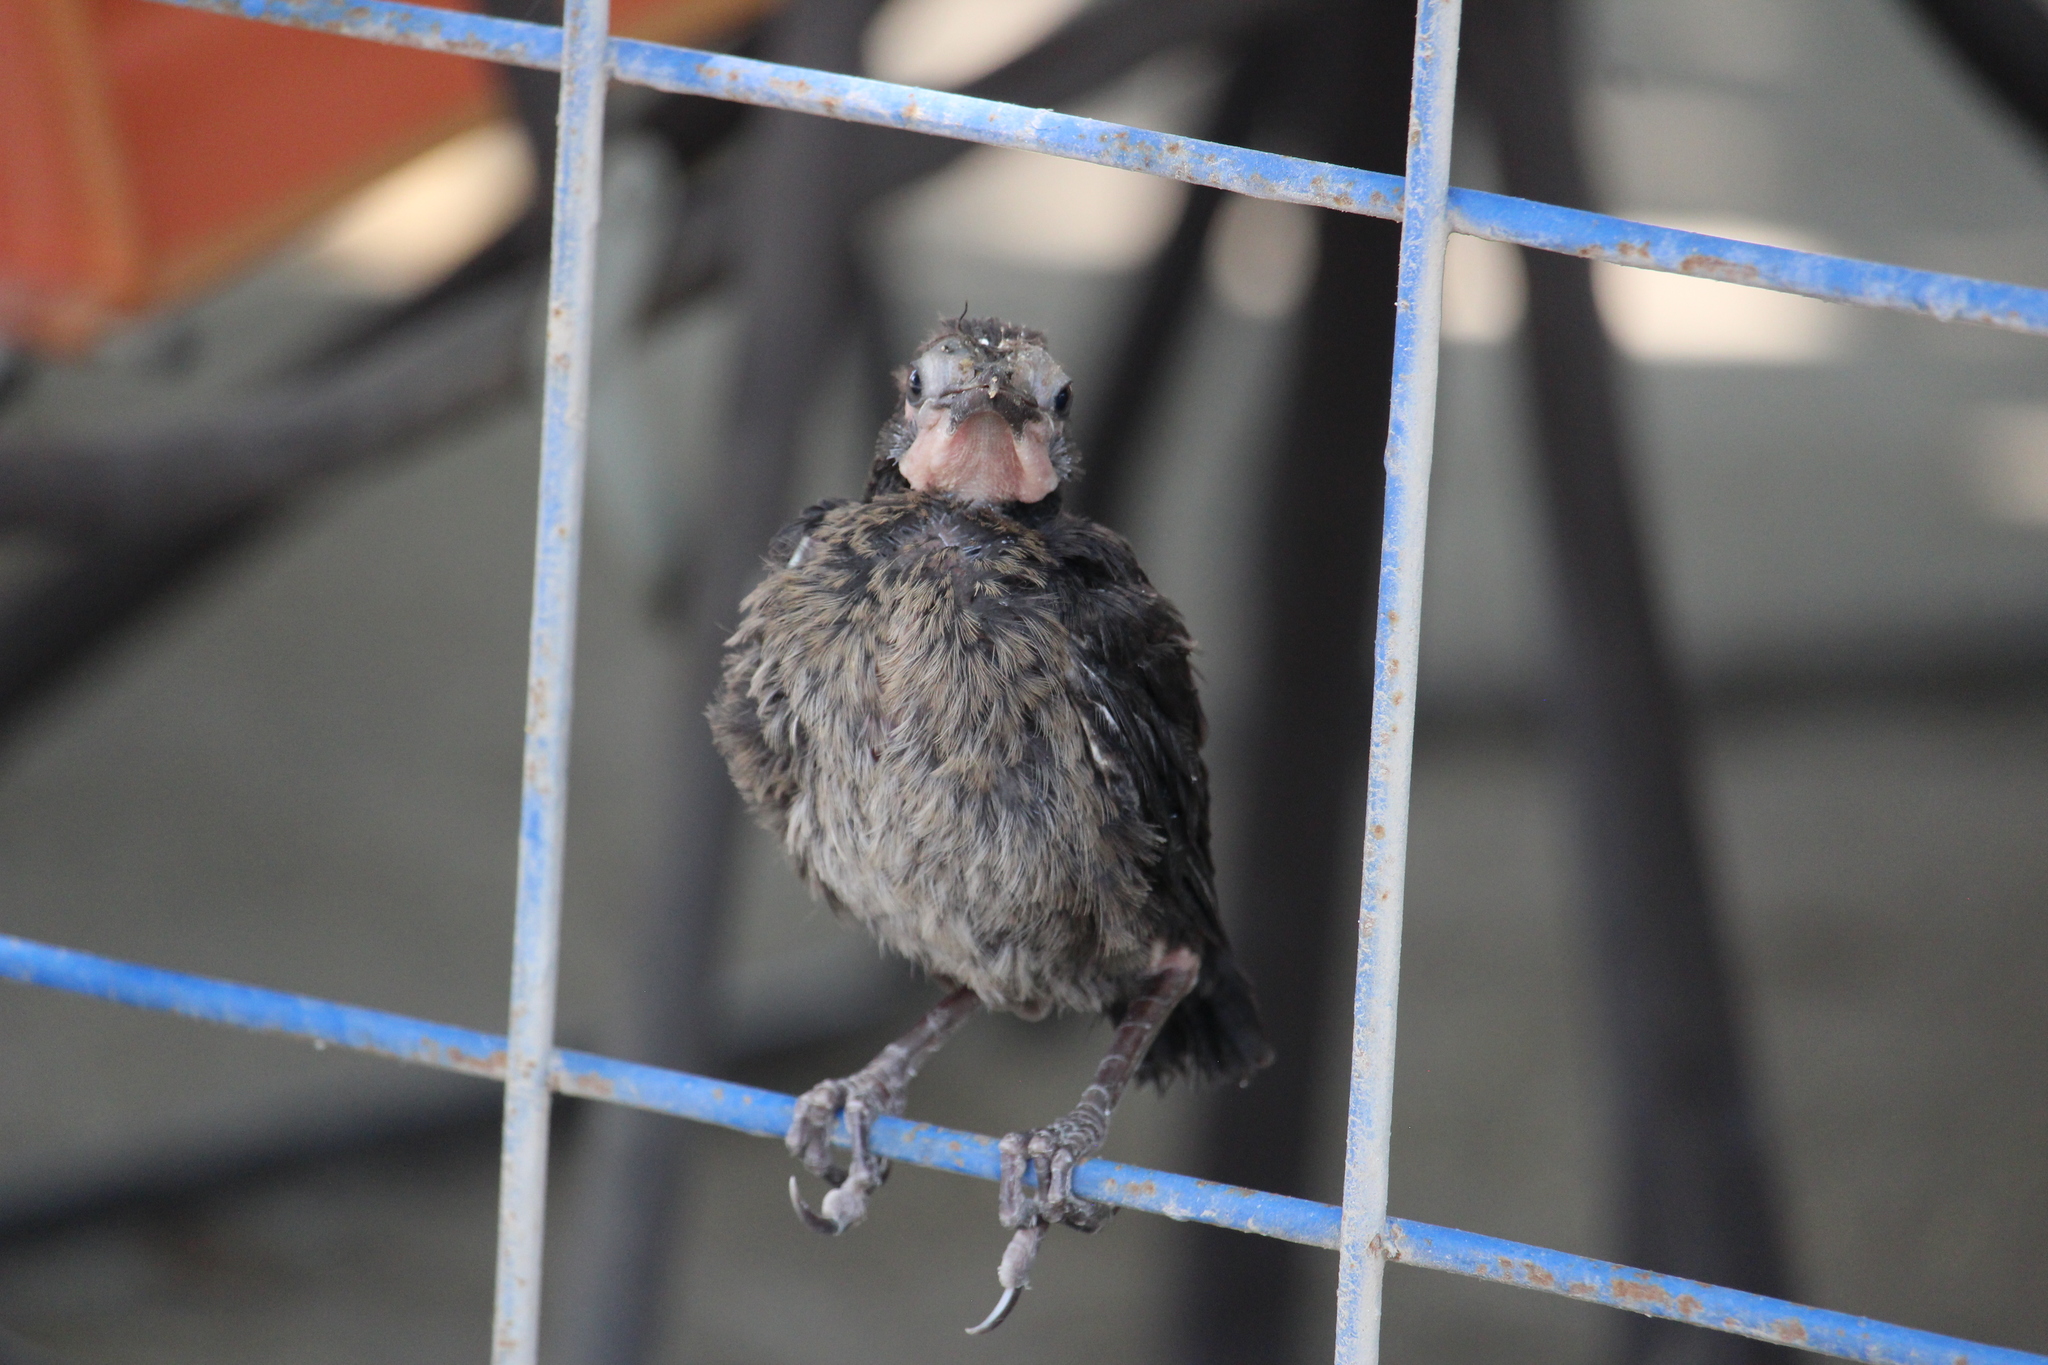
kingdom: Animalia
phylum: Chordata
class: Aves
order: Passeriformes
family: Icteridae
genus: Quiscalus
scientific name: Quiscalus mexicanus
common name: Great-tailed grackle
